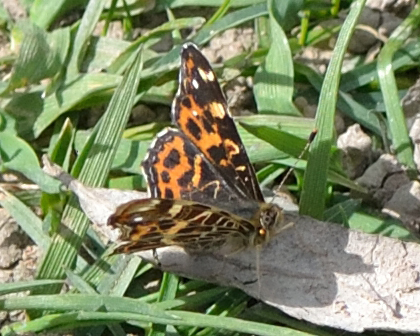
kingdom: Animalia
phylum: Arthropoda
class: Insecta
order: Lepidoptera
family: Nymphalidae
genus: Araschnia
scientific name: Araschnia levana
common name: Map butterfly
